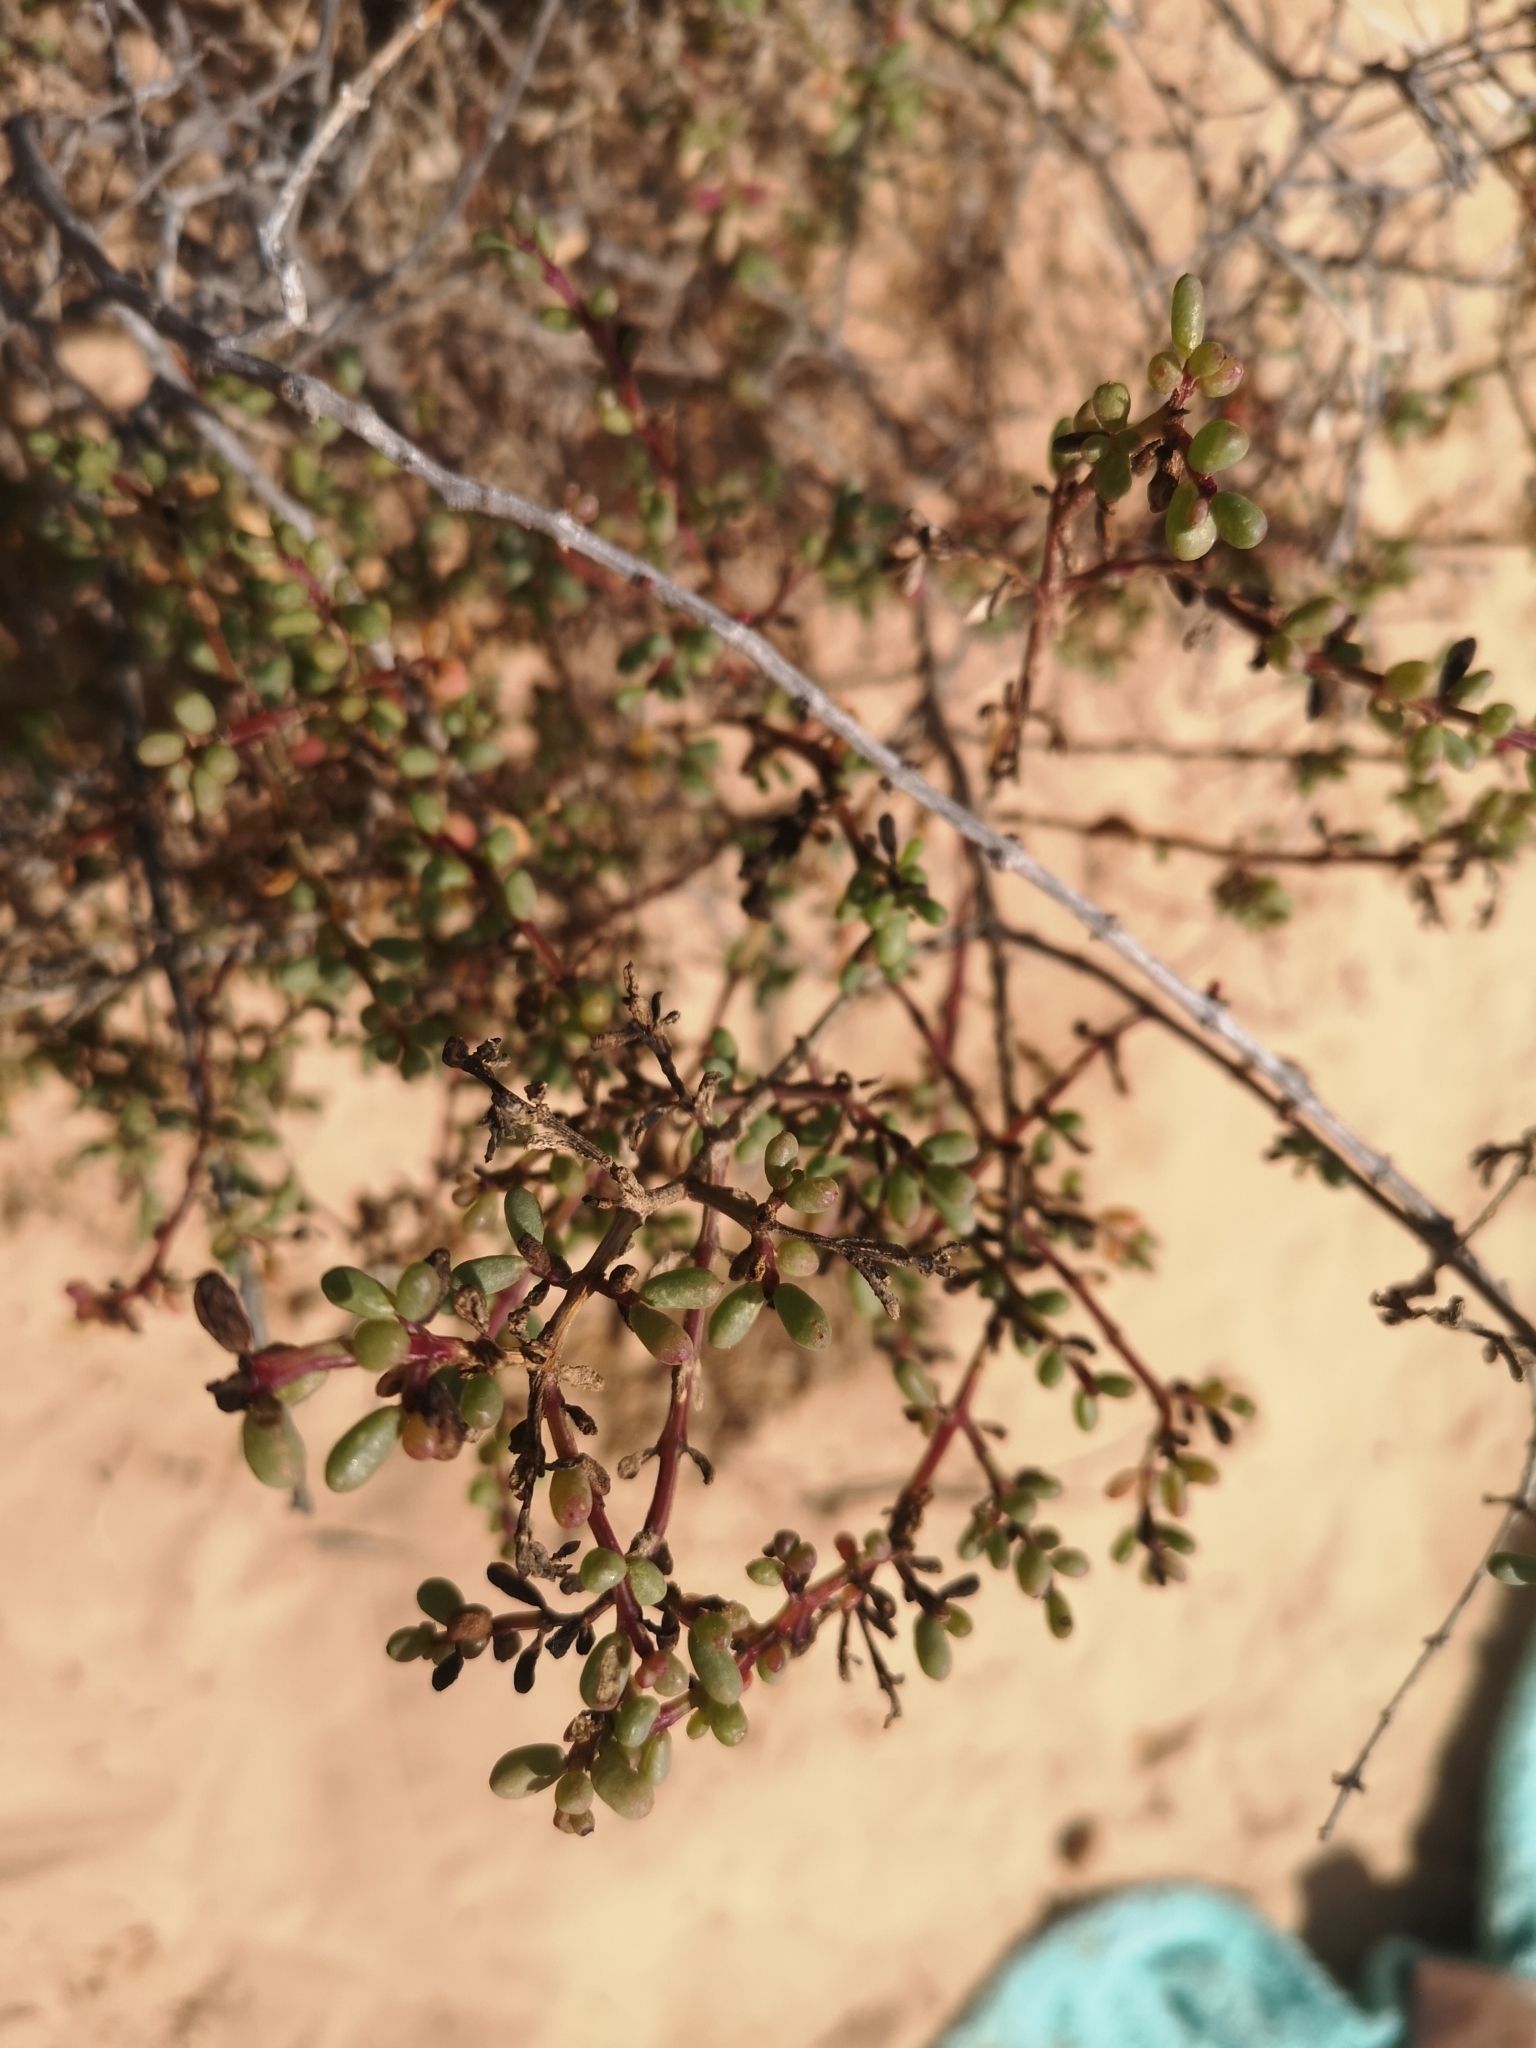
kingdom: Plantae
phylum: Tracheophyta
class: Magnoliopsida
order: Caryophyllales
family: Amaranthaceae
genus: Suaeda
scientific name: Suaeda vermiculata
